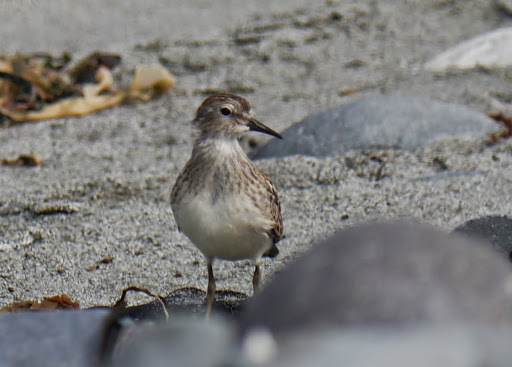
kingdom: Animalia
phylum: Chordata
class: Aves
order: Charadriiformes
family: Scolopacidae
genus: Calidris
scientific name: Calidris minutilla
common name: Least sandpiper
